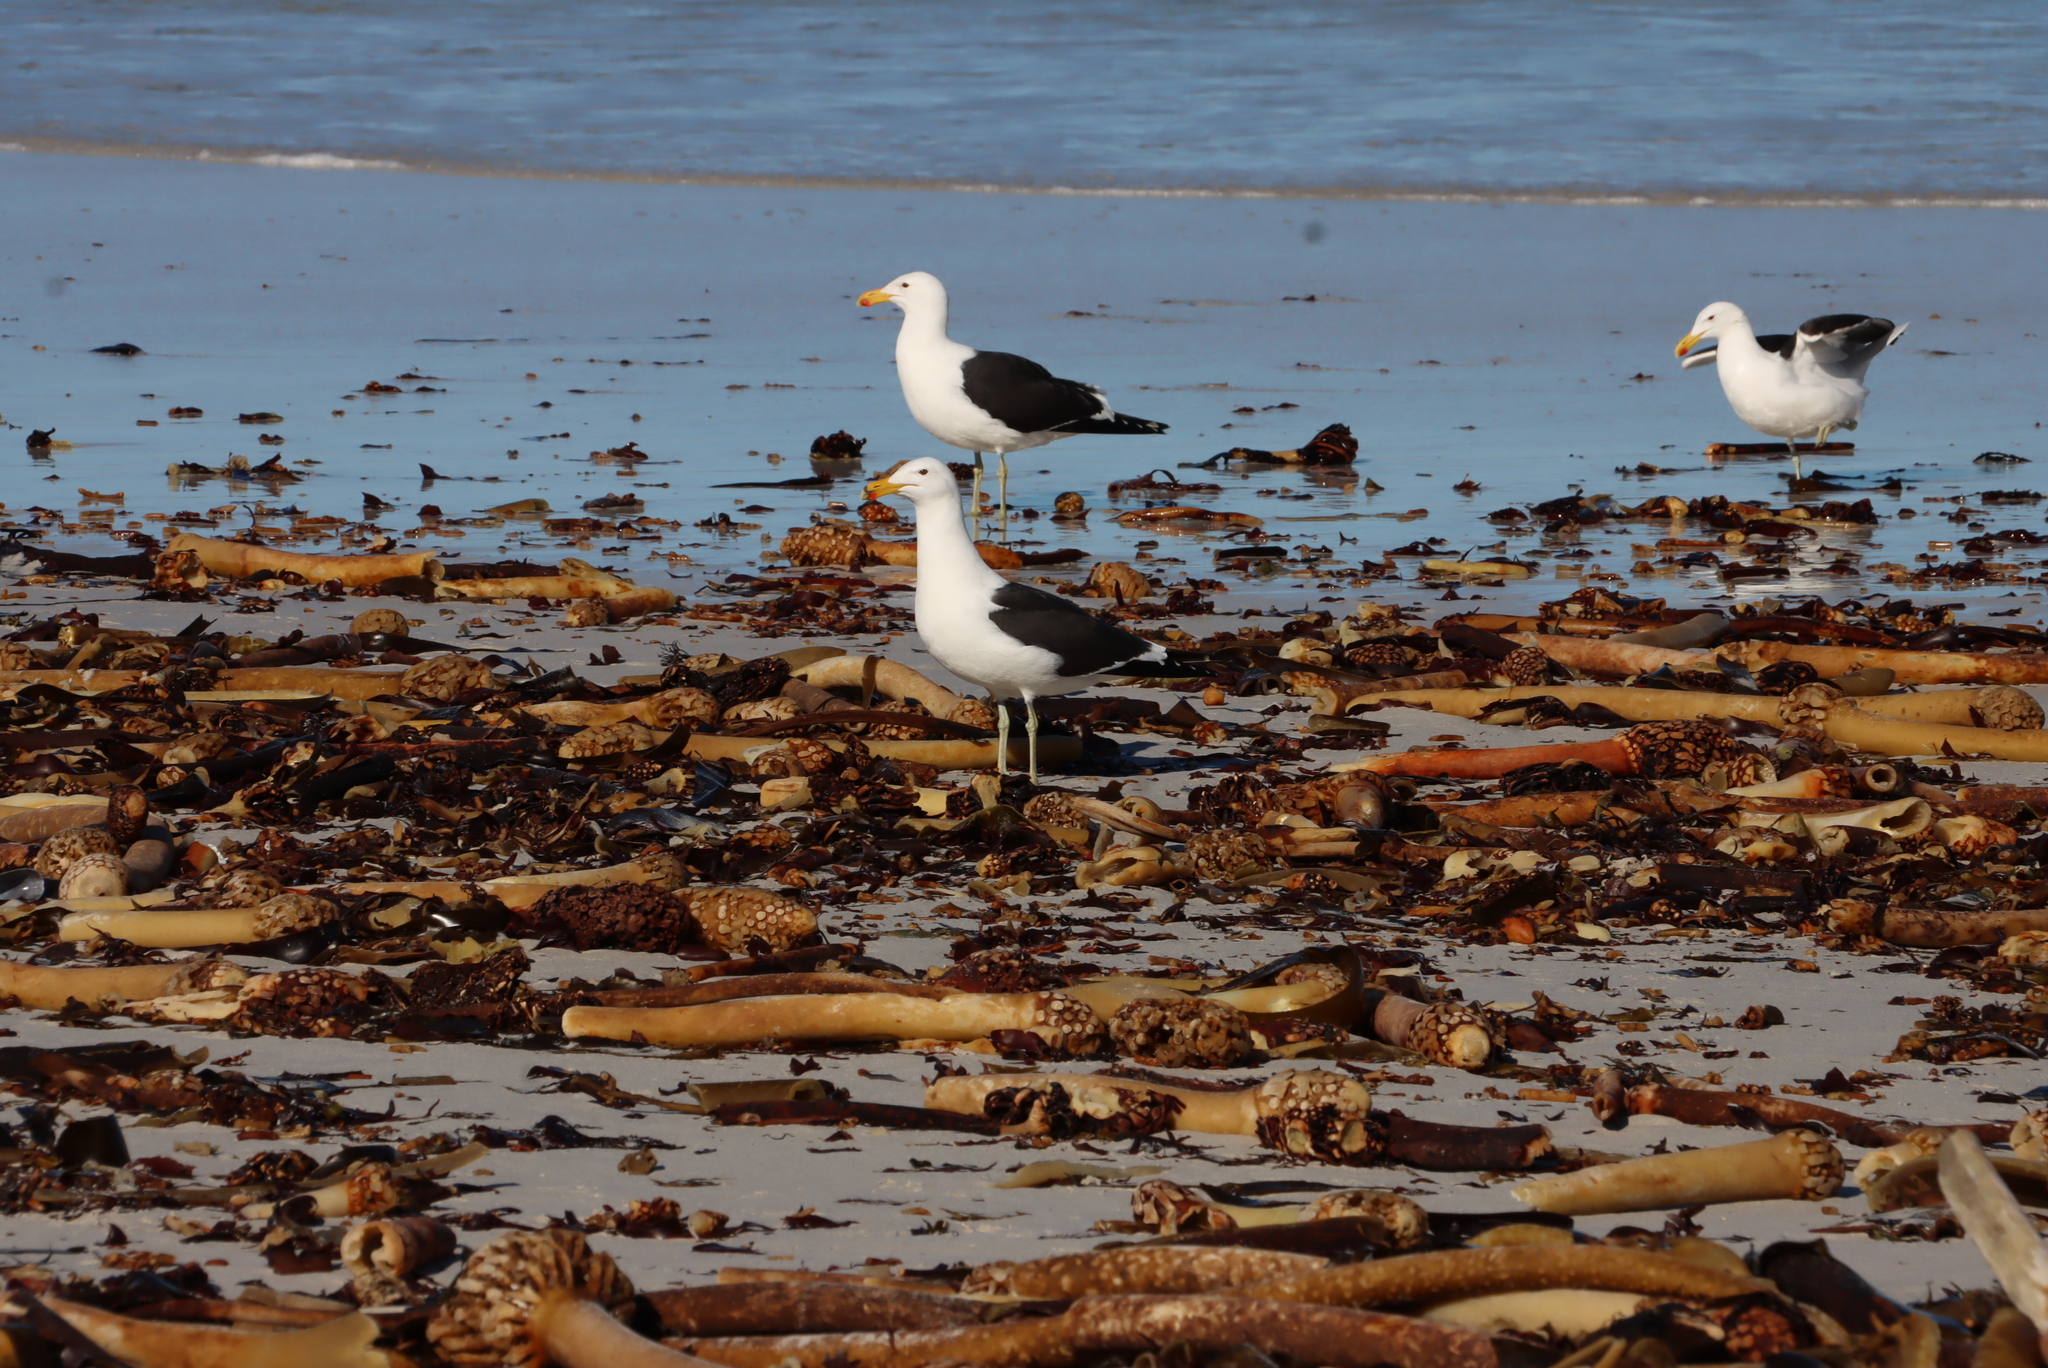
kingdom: Animalia
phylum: Chordata
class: Aves
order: Charadriiformes
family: Laridae
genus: Larus
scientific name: Larus dominicanus
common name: Kelp gull
